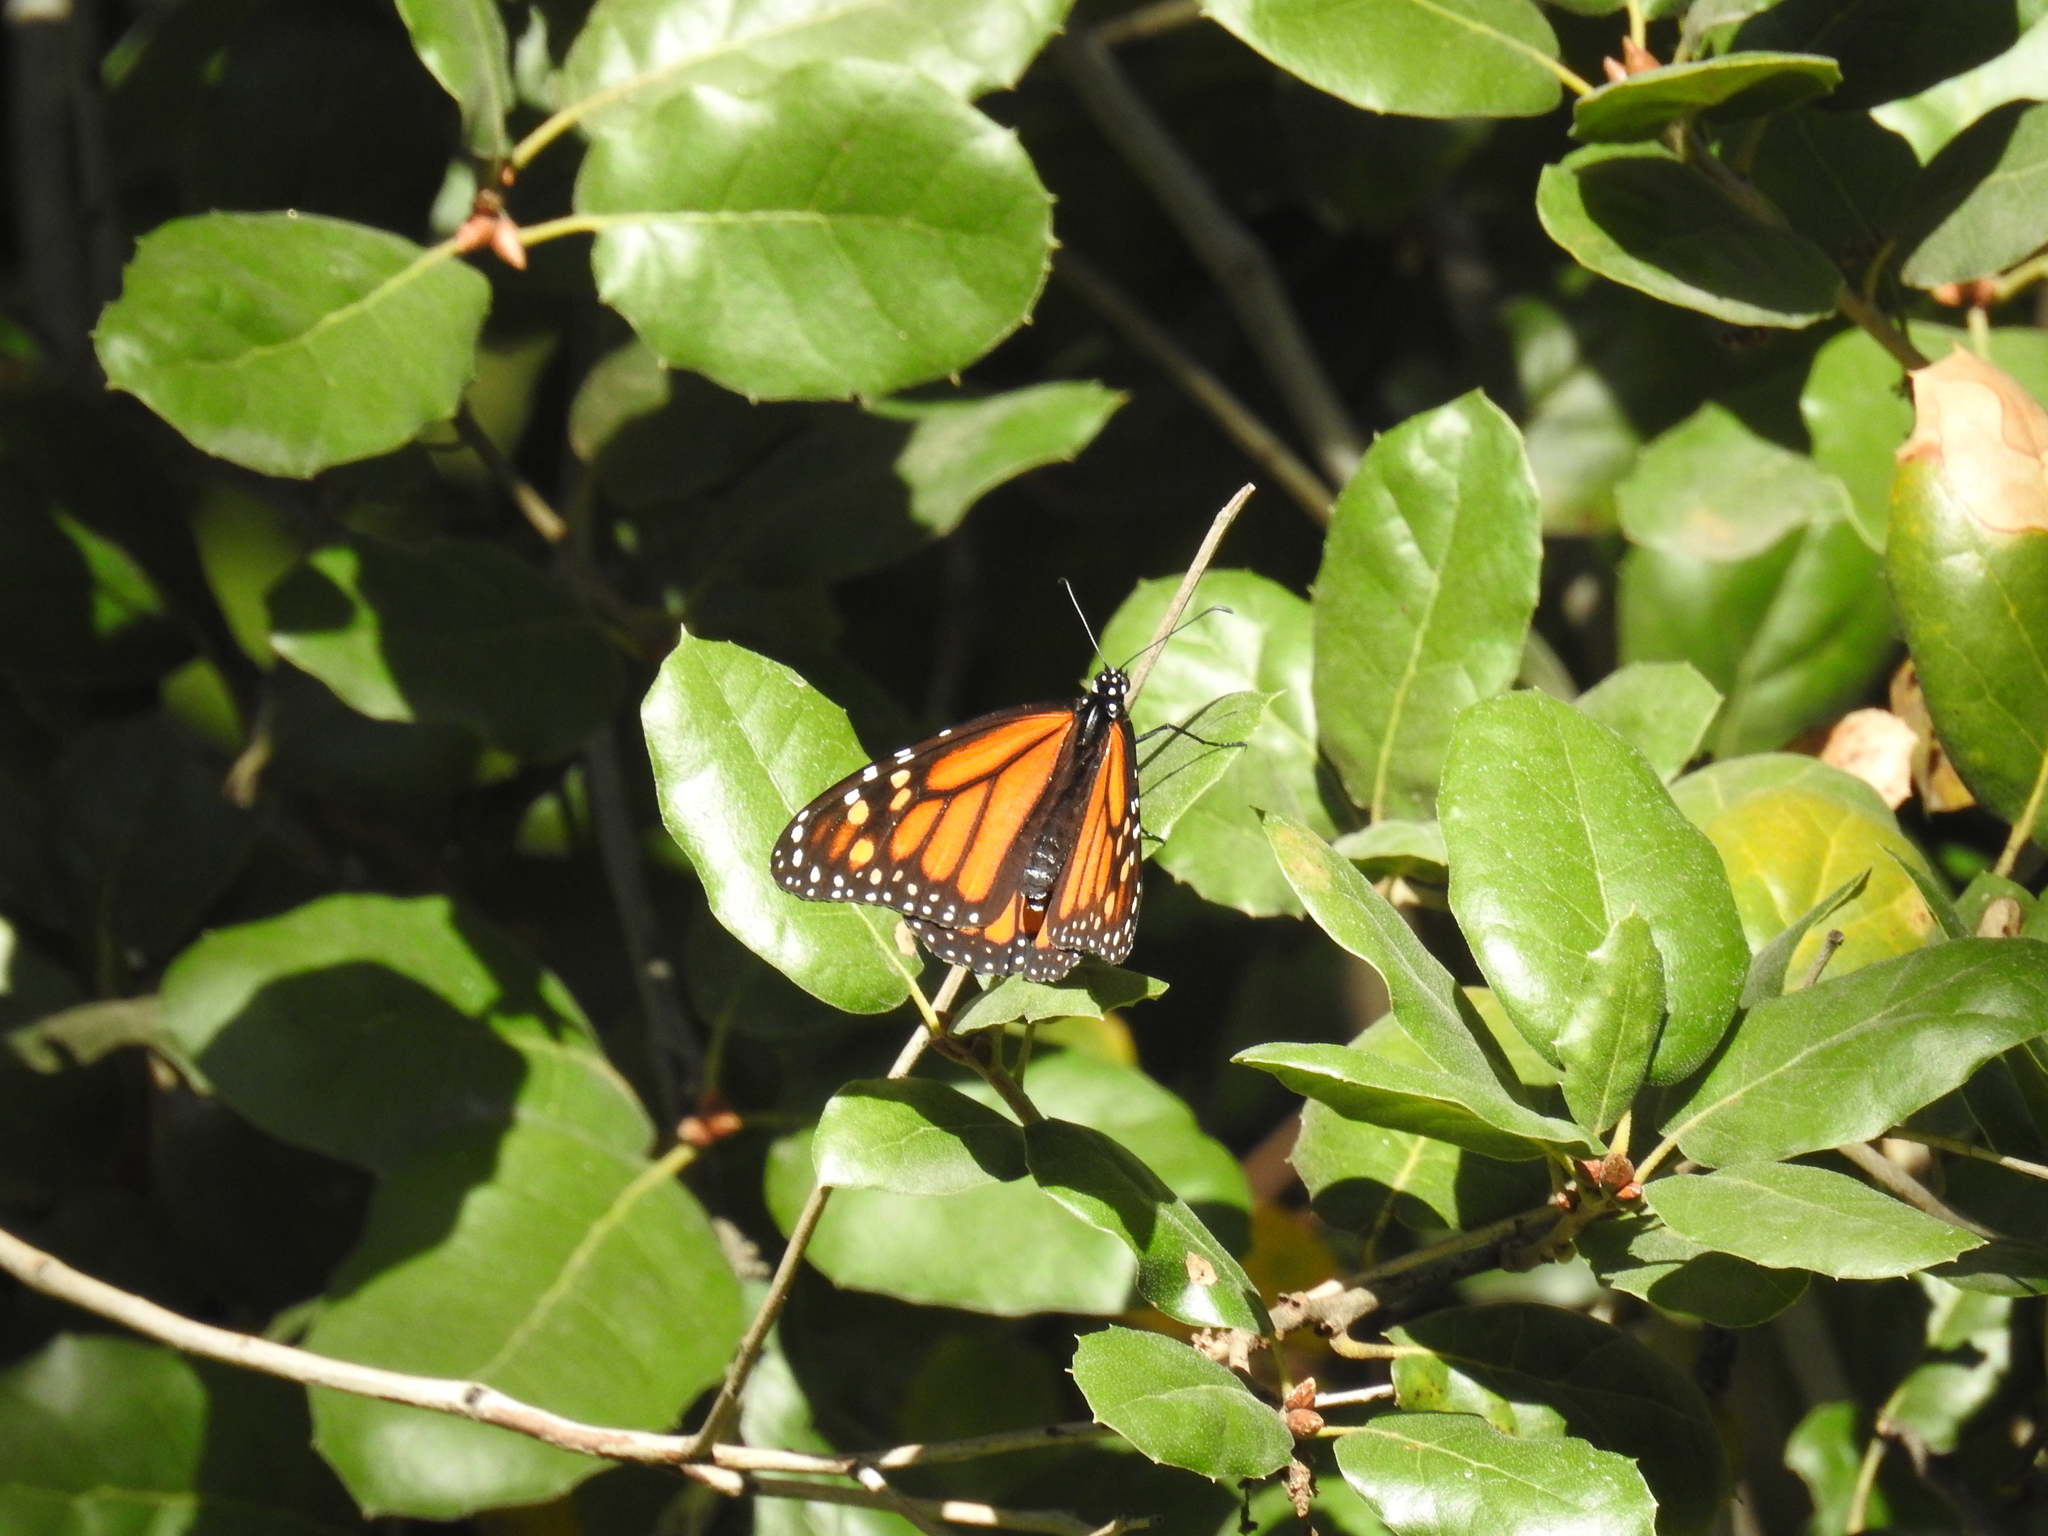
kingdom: Animalia
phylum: Arthropoda
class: Insecta
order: Lepidoptera
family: Nymphalidae
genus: Danaus
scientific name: Danaus plexippus
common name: Monarch
